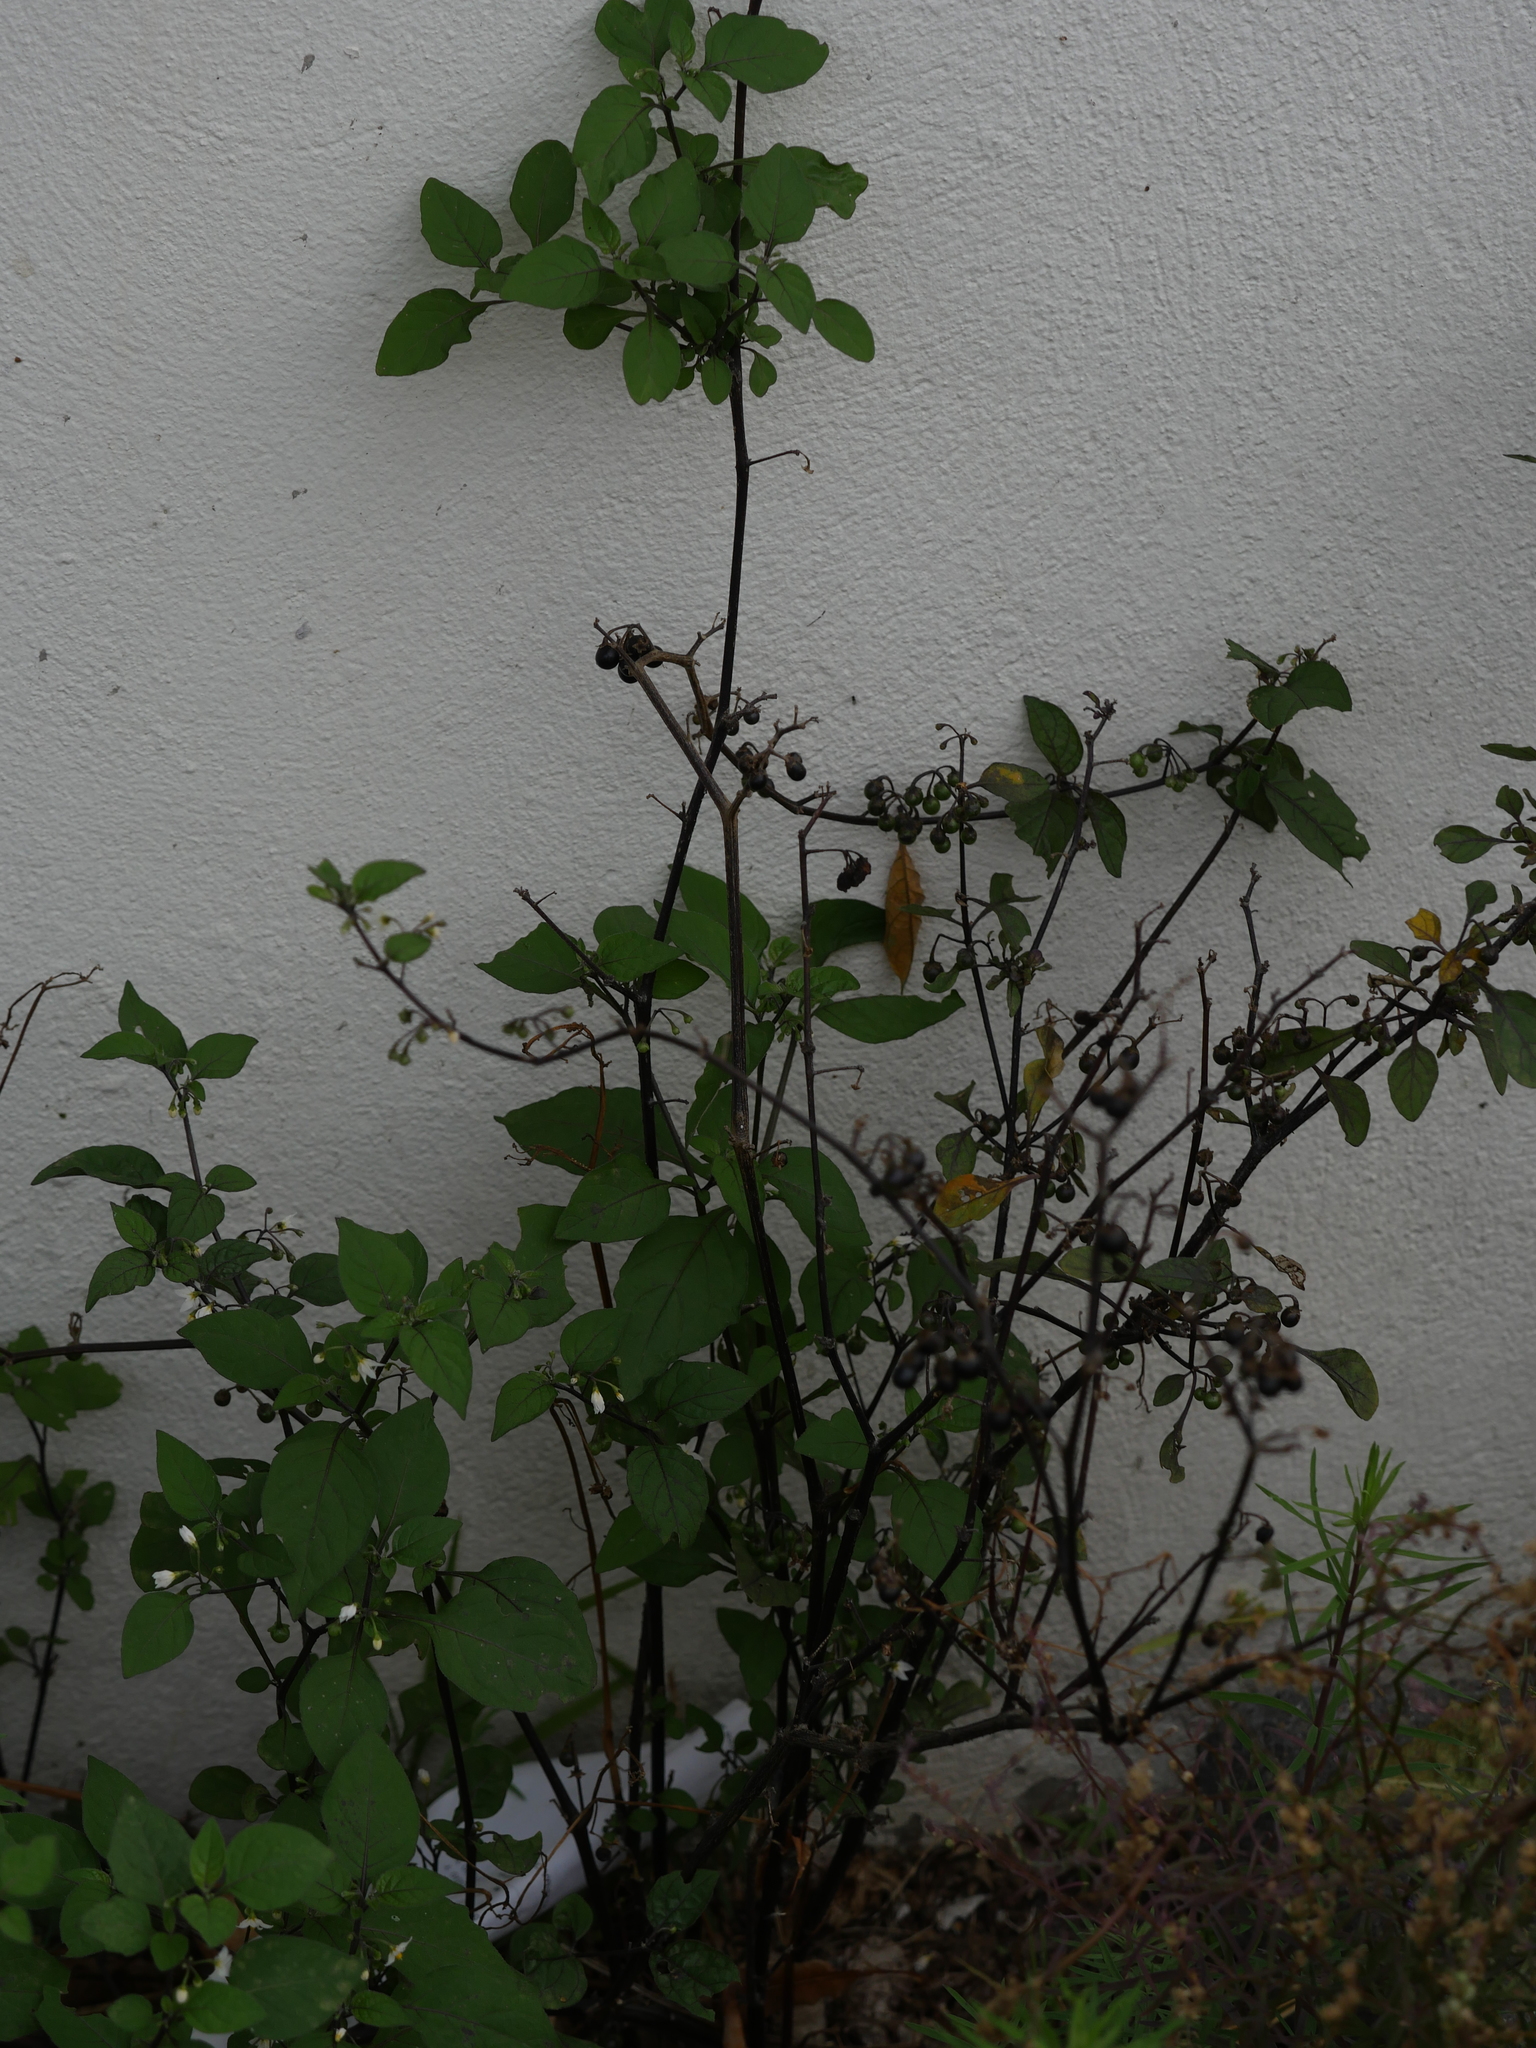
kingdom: Plantae
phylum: Tracheophyta
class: Magnoliopsida
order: Solanales
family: Solanaceae
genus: Solanum
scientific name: Solanum nigrum
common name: Black nightshade
